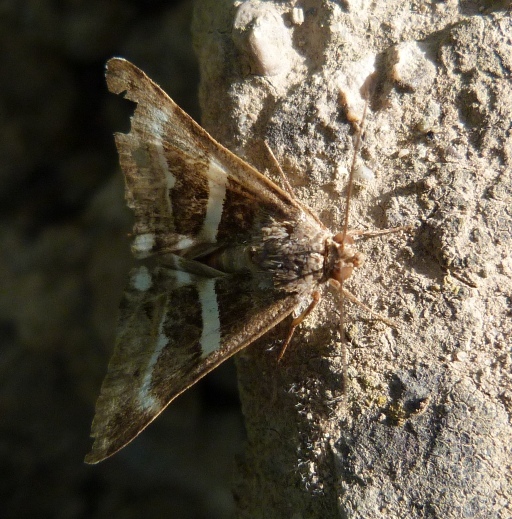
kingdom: Animalia
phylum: Arthropoda
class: Insecta
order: Lepidoptera
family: Erebidae
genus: Grammodes
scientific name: Grammodes stolida
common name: Geometrician
